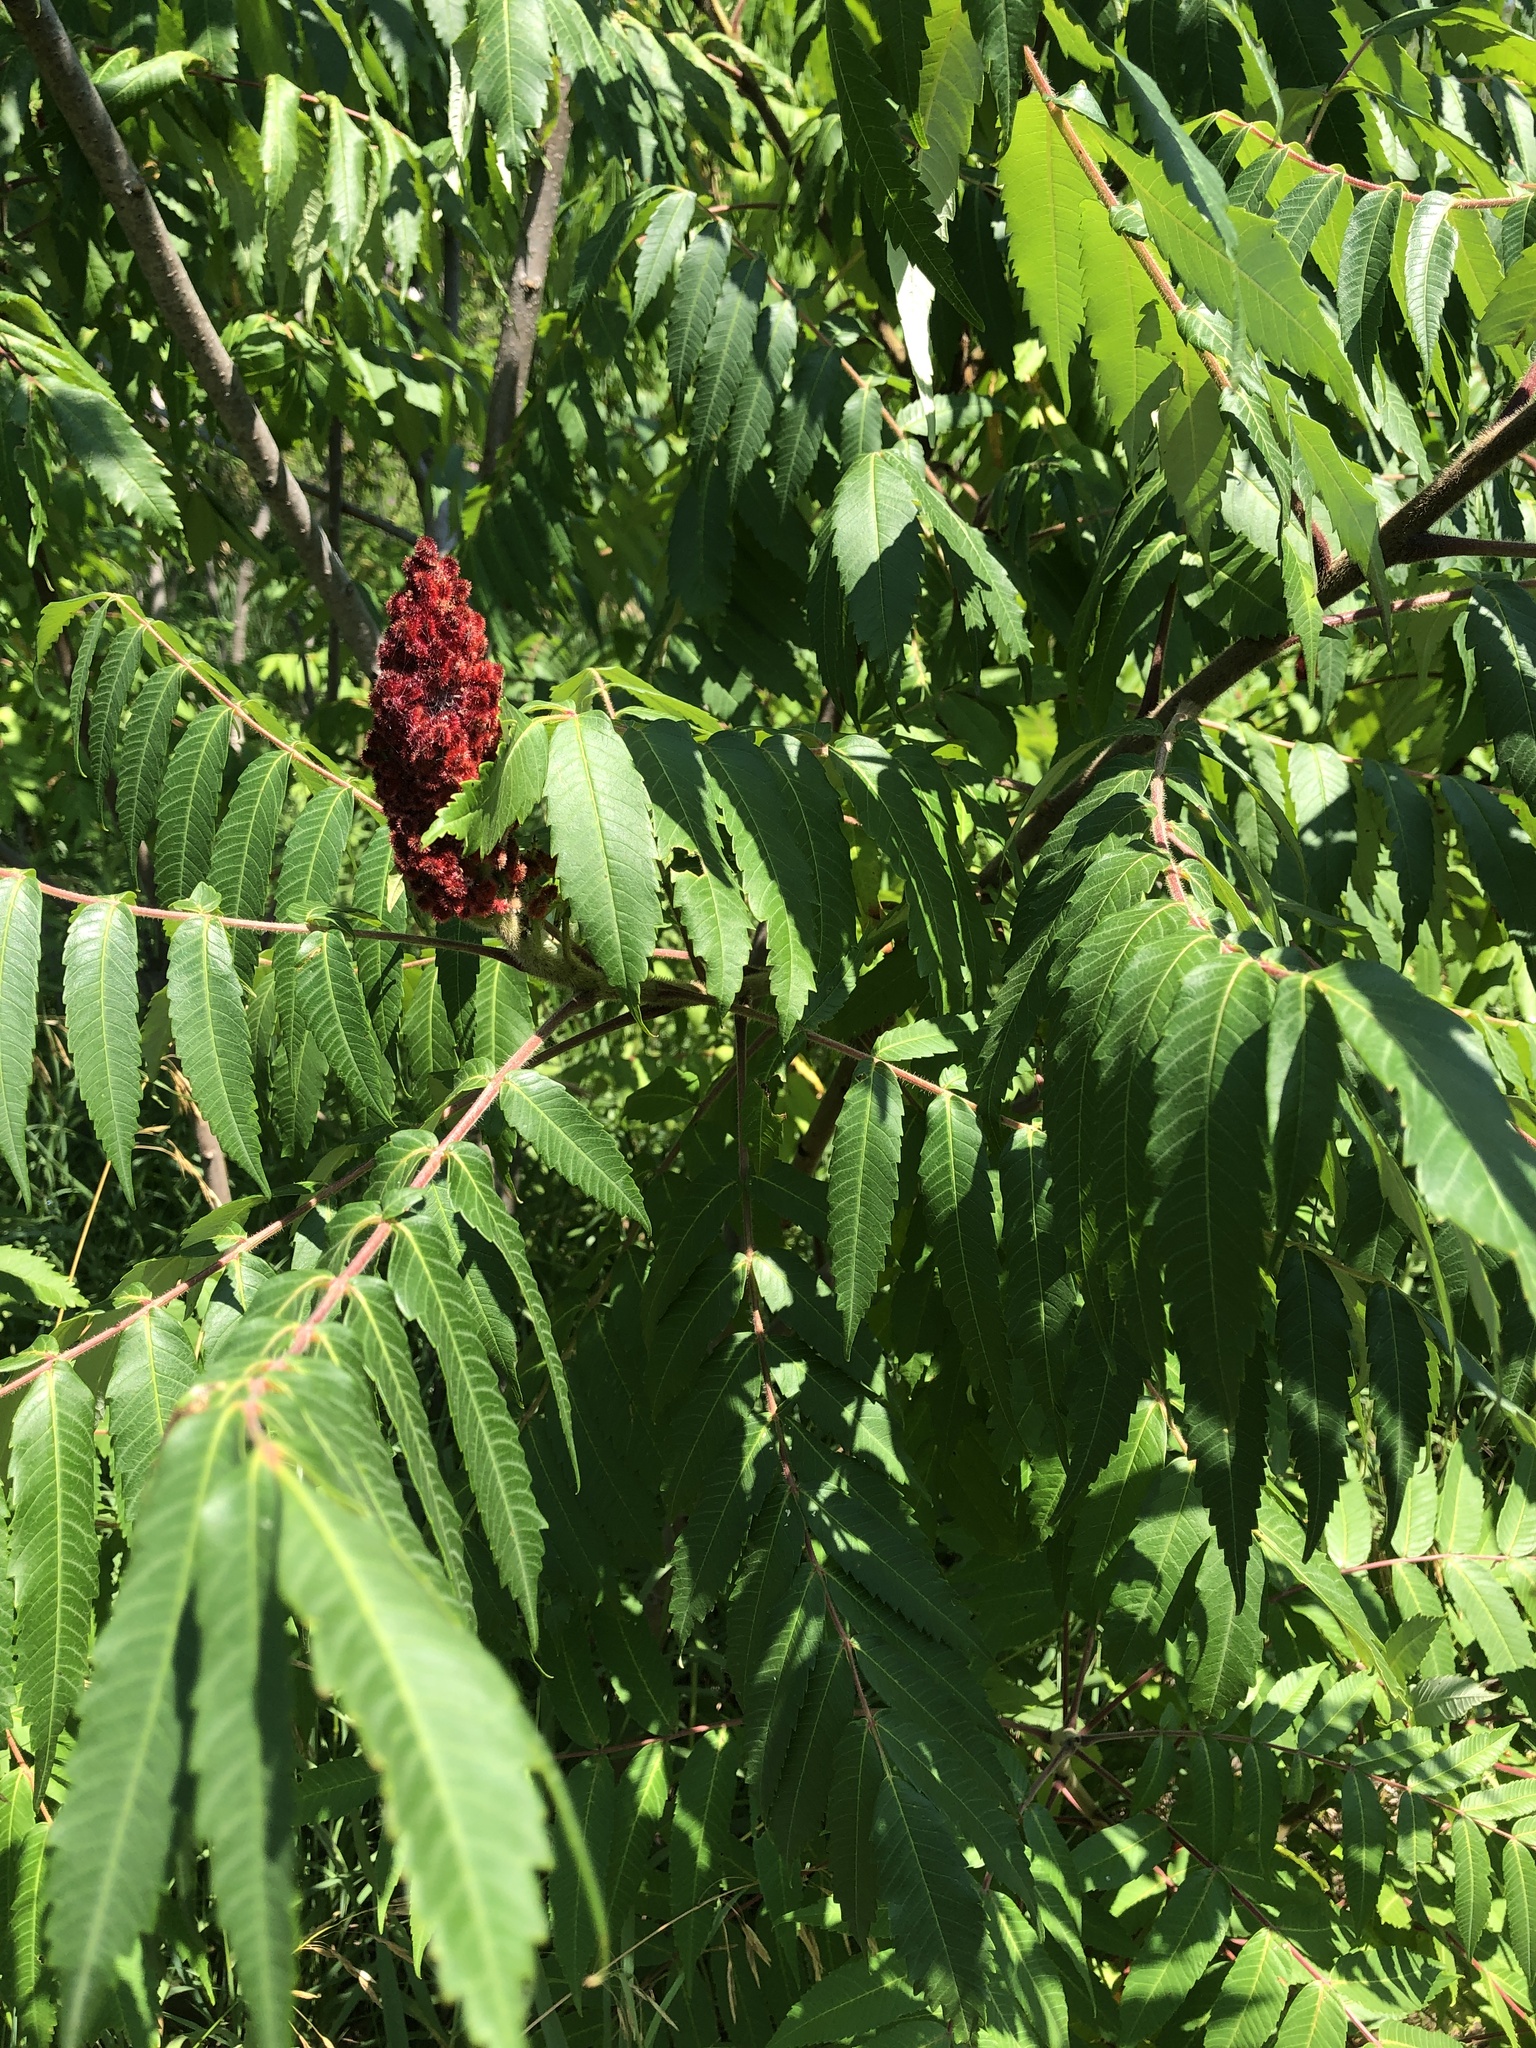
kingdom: Plantae
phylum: Tracheophyta
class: Magnoliopsida
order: Sapindales
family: Anacardiaceae
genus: Rhus
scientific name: Rhus typhina
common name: Staghorn sumac
